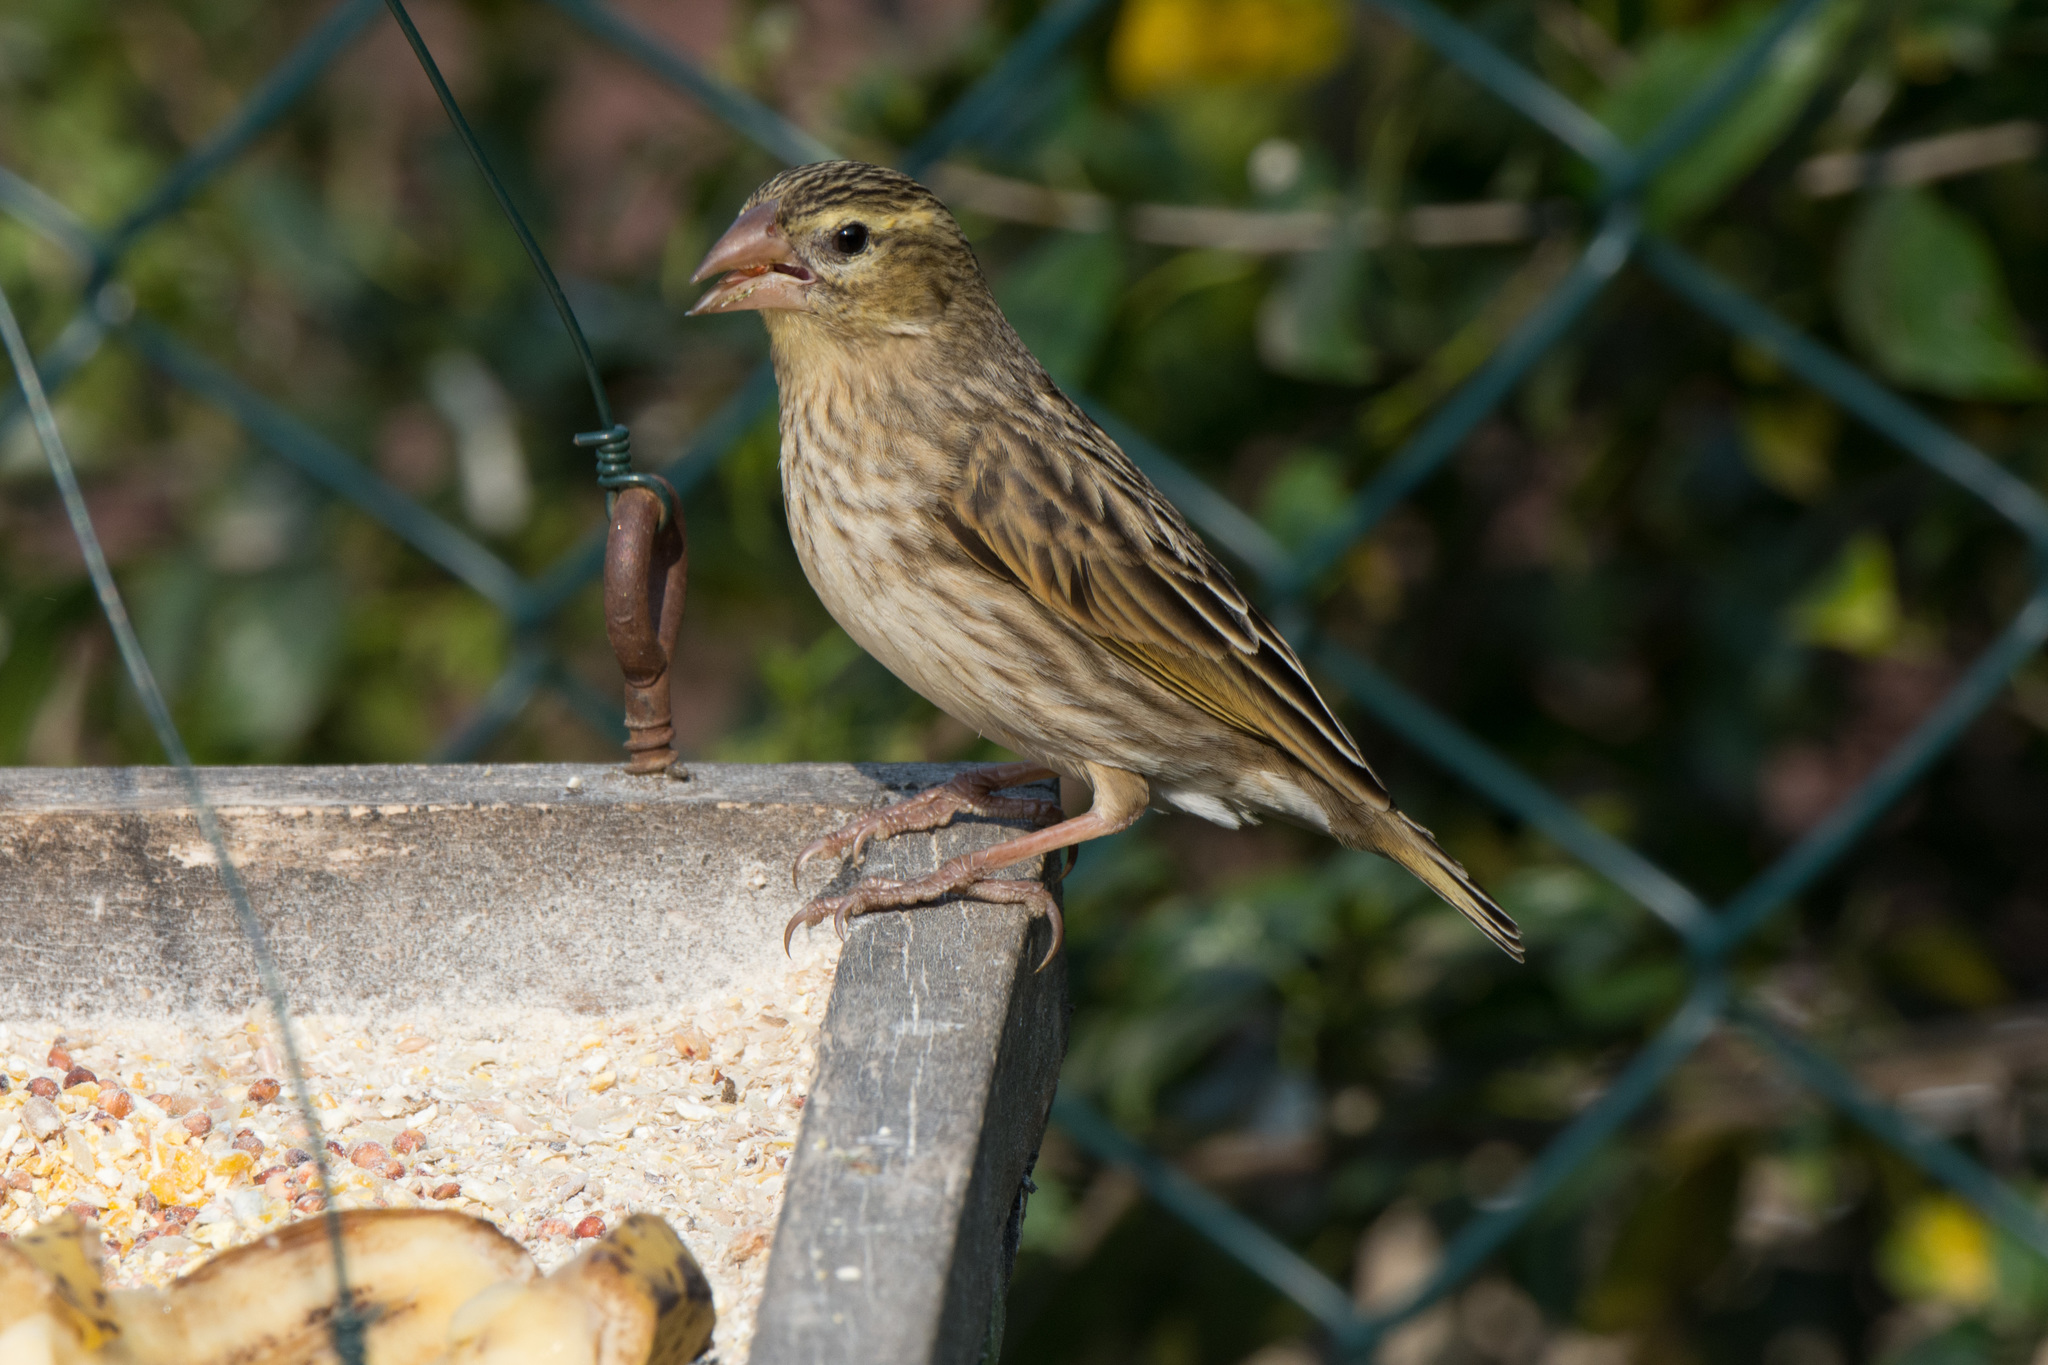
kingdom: Animalia
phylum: Chordata
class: Aves
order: Passeriformes
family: Ploceidae
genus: Euplectes
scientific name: Euplectes orix
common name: Southern red bishop
